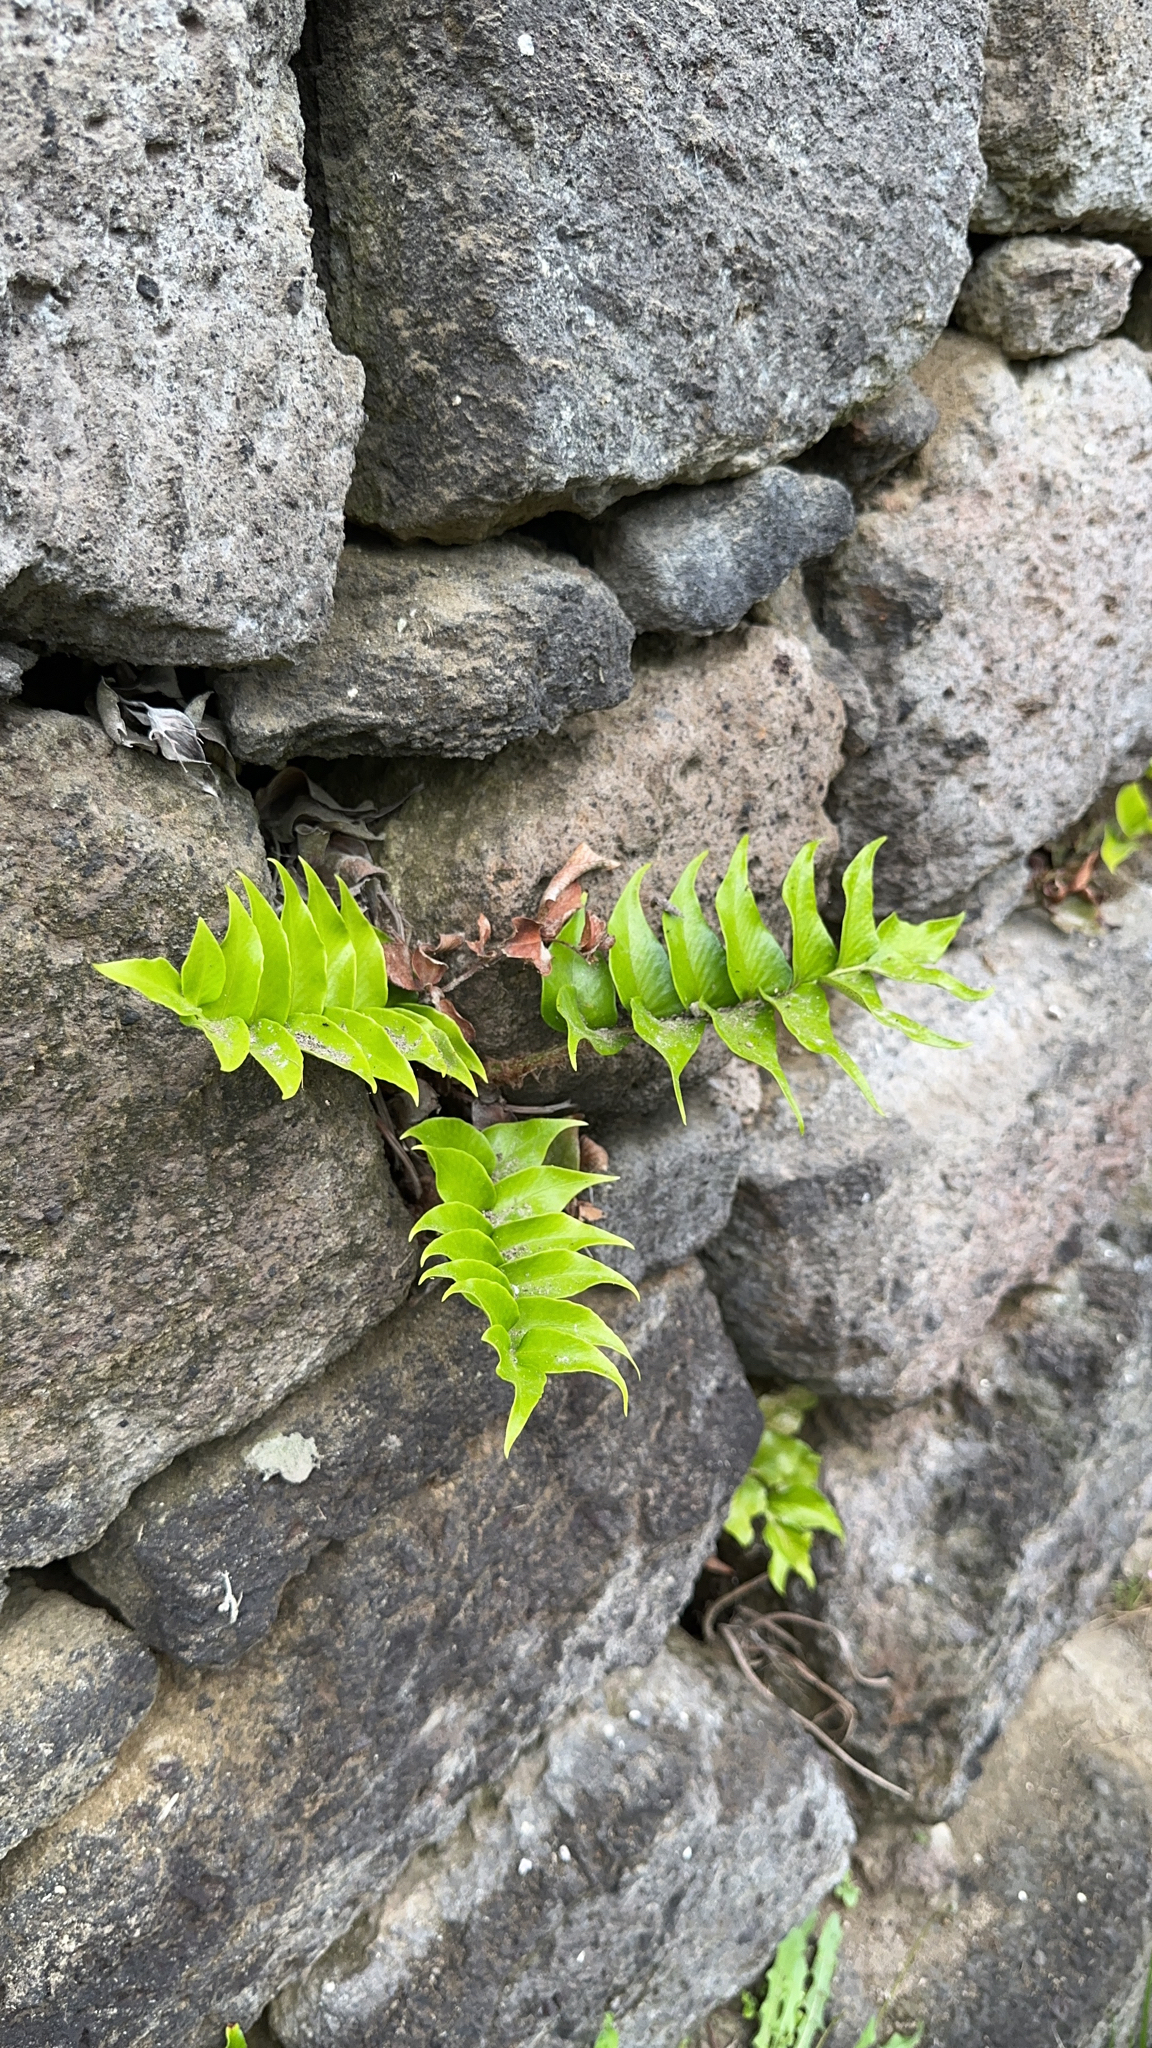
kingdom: Plantae
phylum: Tracheophyta
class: Polypodiopsida
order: Polypodiales
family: Dryopteridaceae
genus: Cyrtomium
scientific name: Cyrtomium falcatum
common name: House holly-fern
